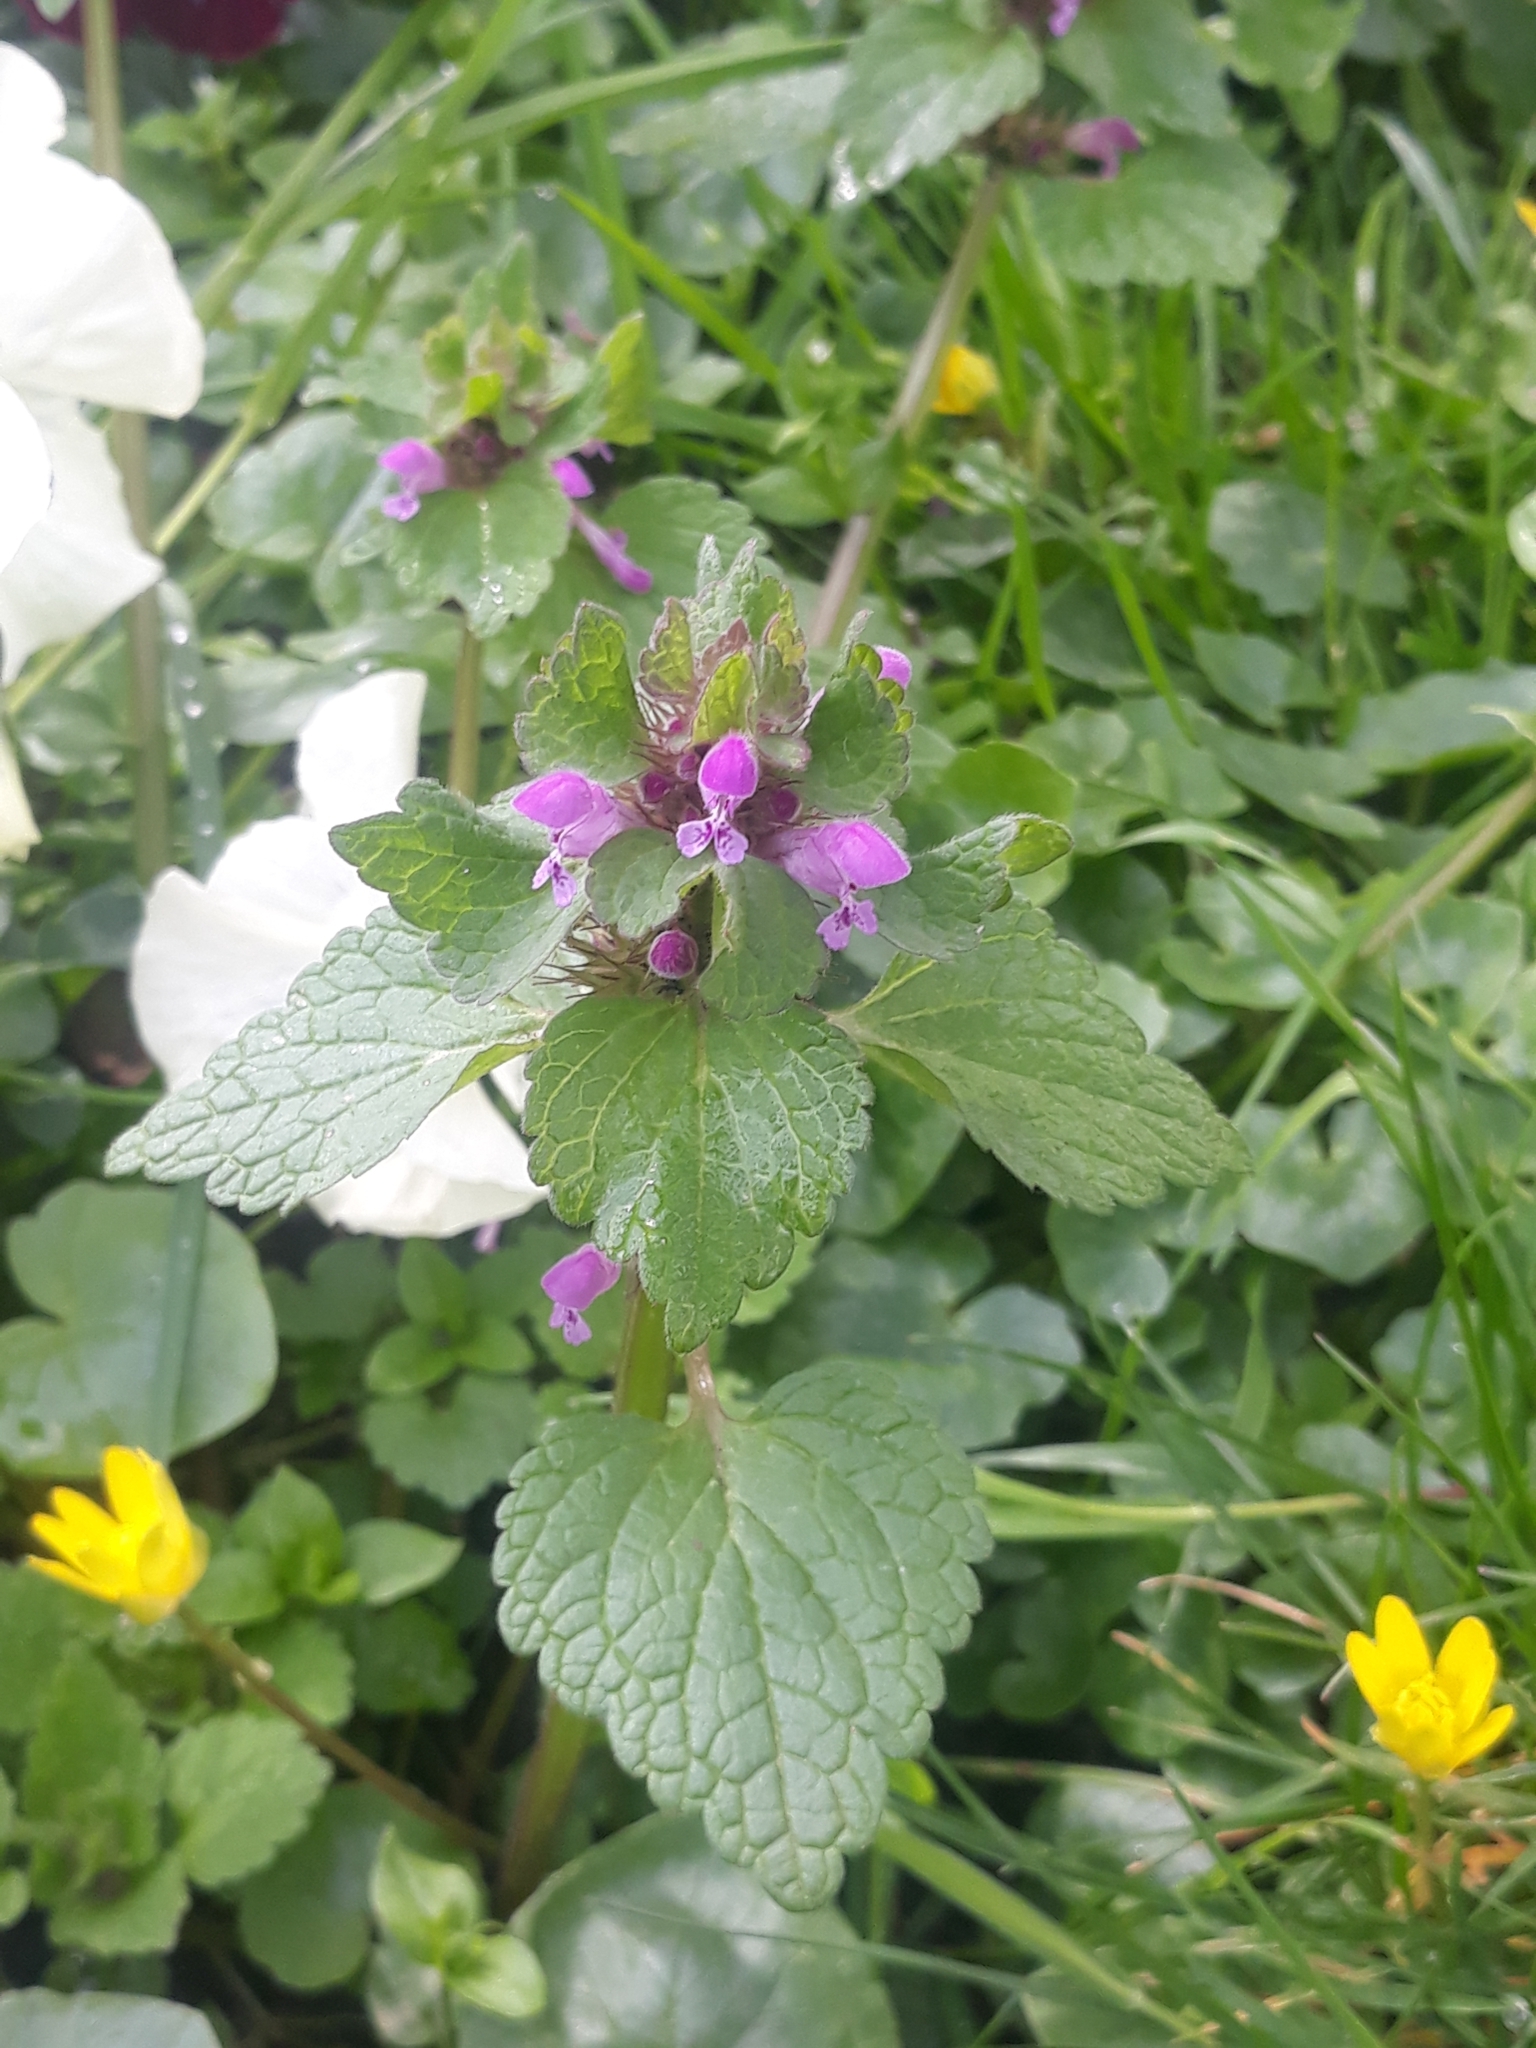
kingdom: Plantae
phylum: Tracheophyta
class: Magnoliopsida
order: Lamiales
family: Lamiaceae
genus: Lamium
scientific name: Lamium purpureum
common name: Red dead-nettle
